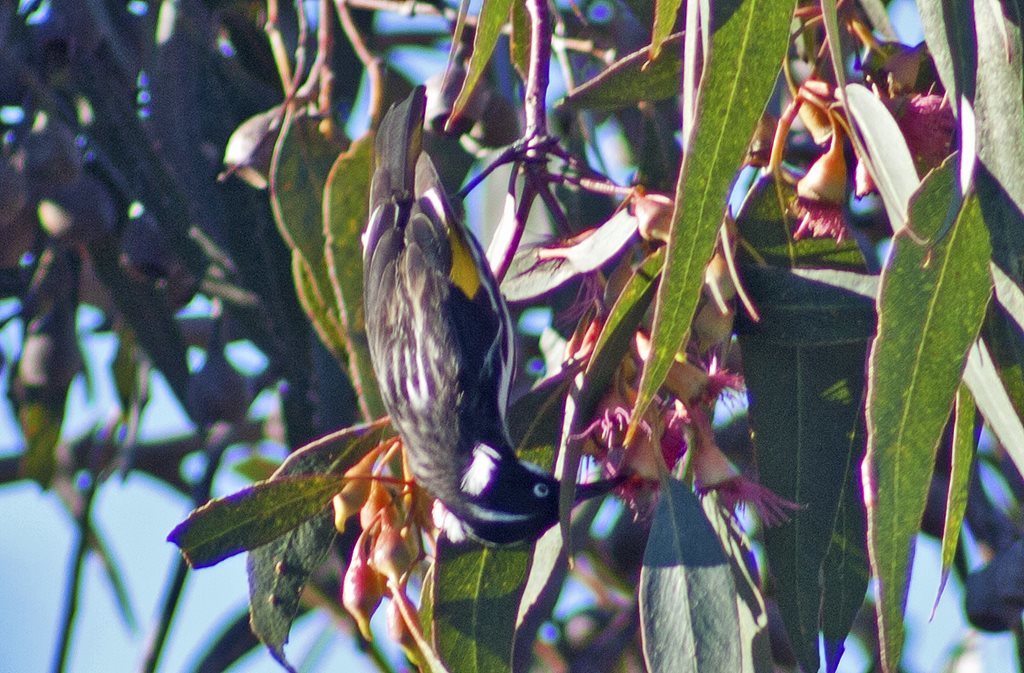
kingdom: Animalia
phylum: Chordata
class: Aves
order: Passeriformes
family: Meliphagidae
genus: Phylidonyris
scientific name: Phylidonyris novaehollandiae
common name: New holland honeyeater
